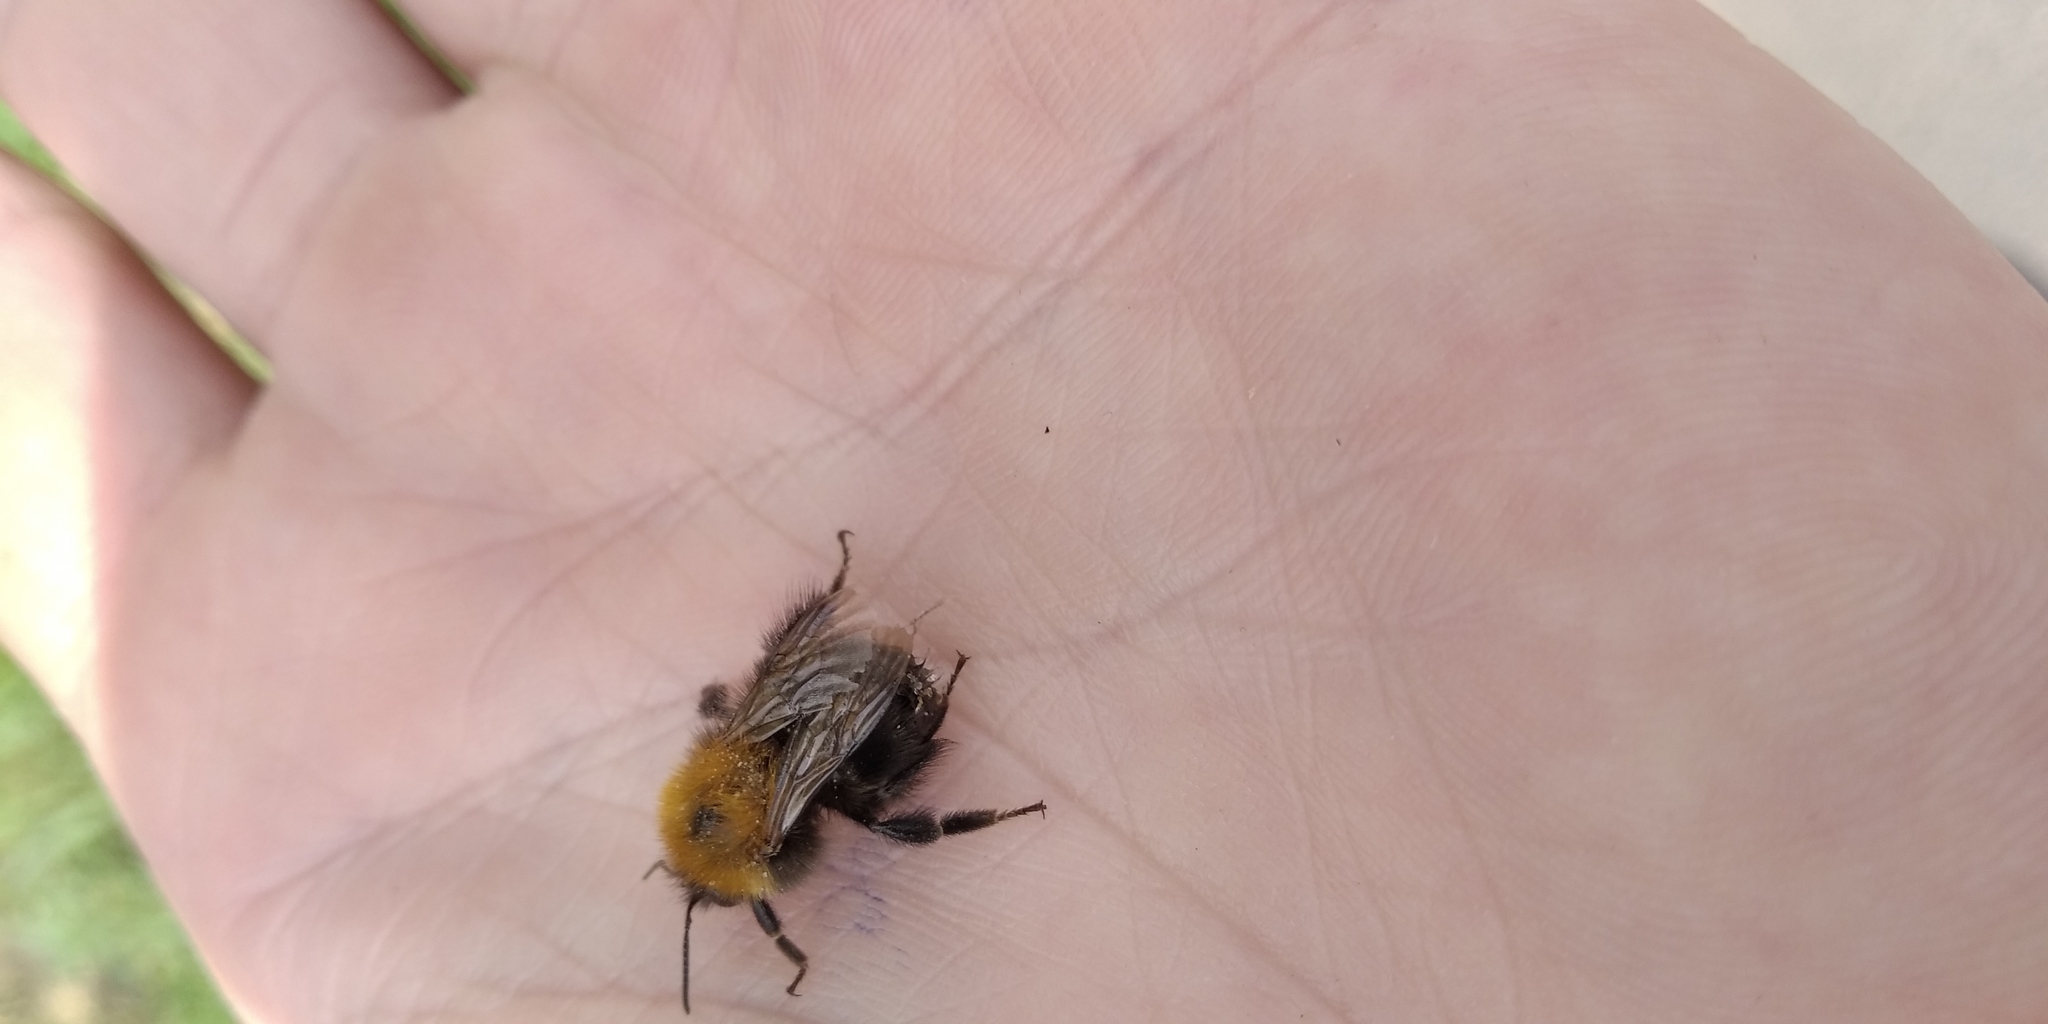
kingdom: Animalia
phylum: Arthropoda
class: Insecta
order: Hymenoptera
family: Apidae
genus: Bombus
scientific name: Bombus hypnorum
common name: New garden bumblebee
